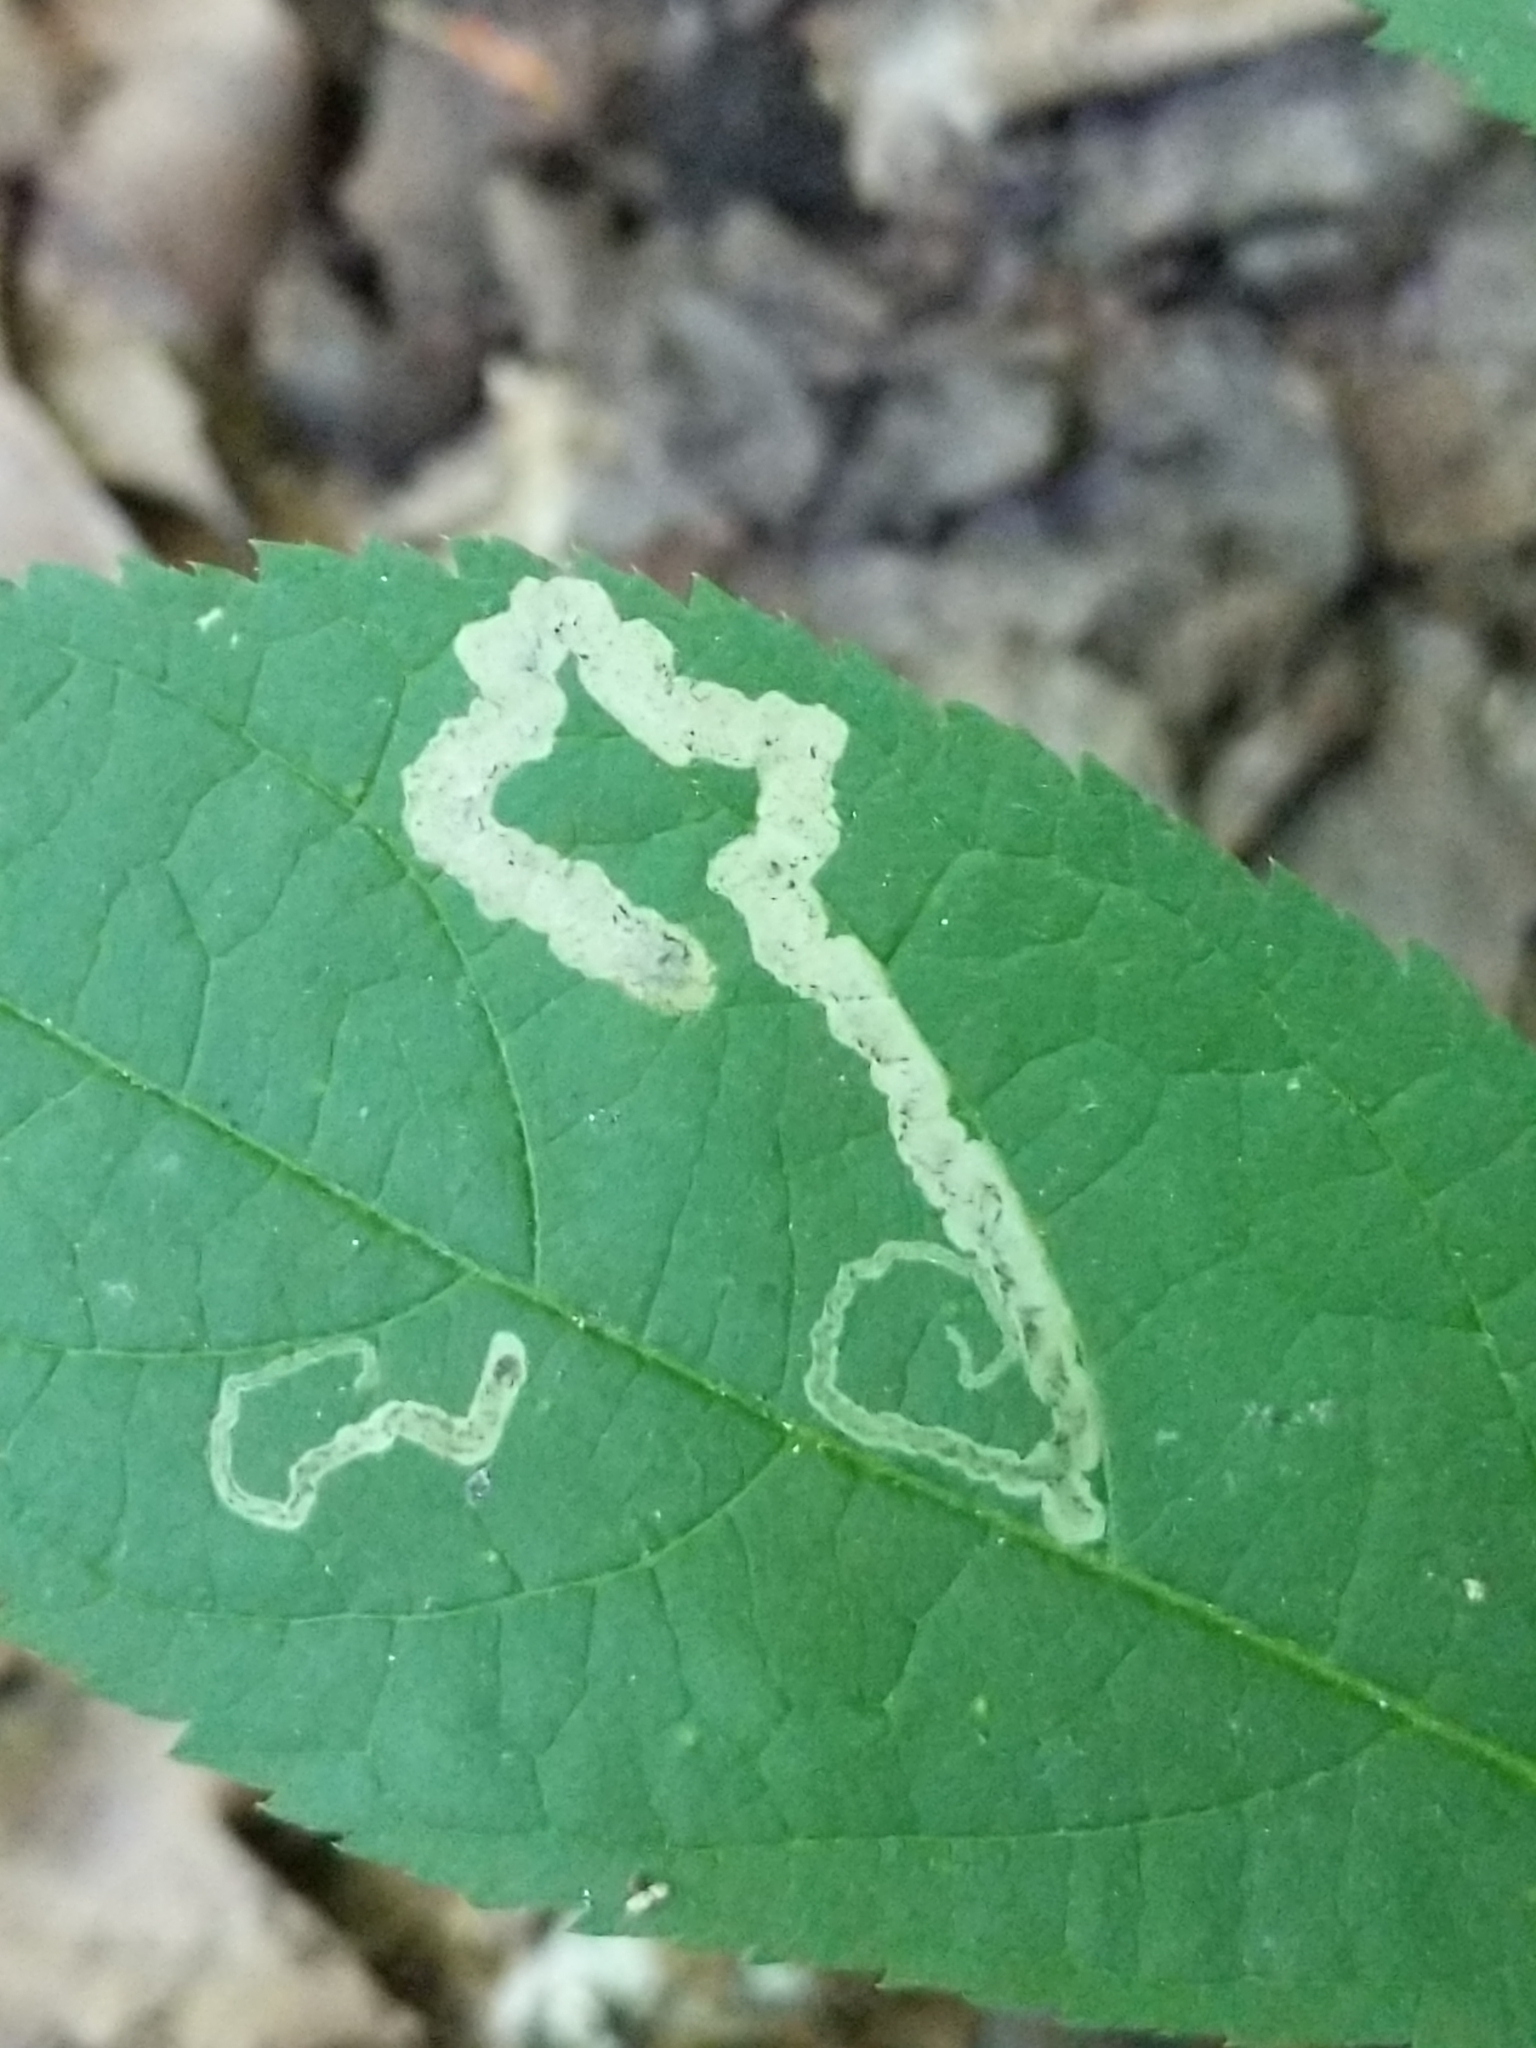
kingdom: Animalia
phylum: Arthropoda
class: Insecta
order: Diptera
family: Agromyzidae
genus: Phytomyza
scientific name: Phytomyza aralivora
